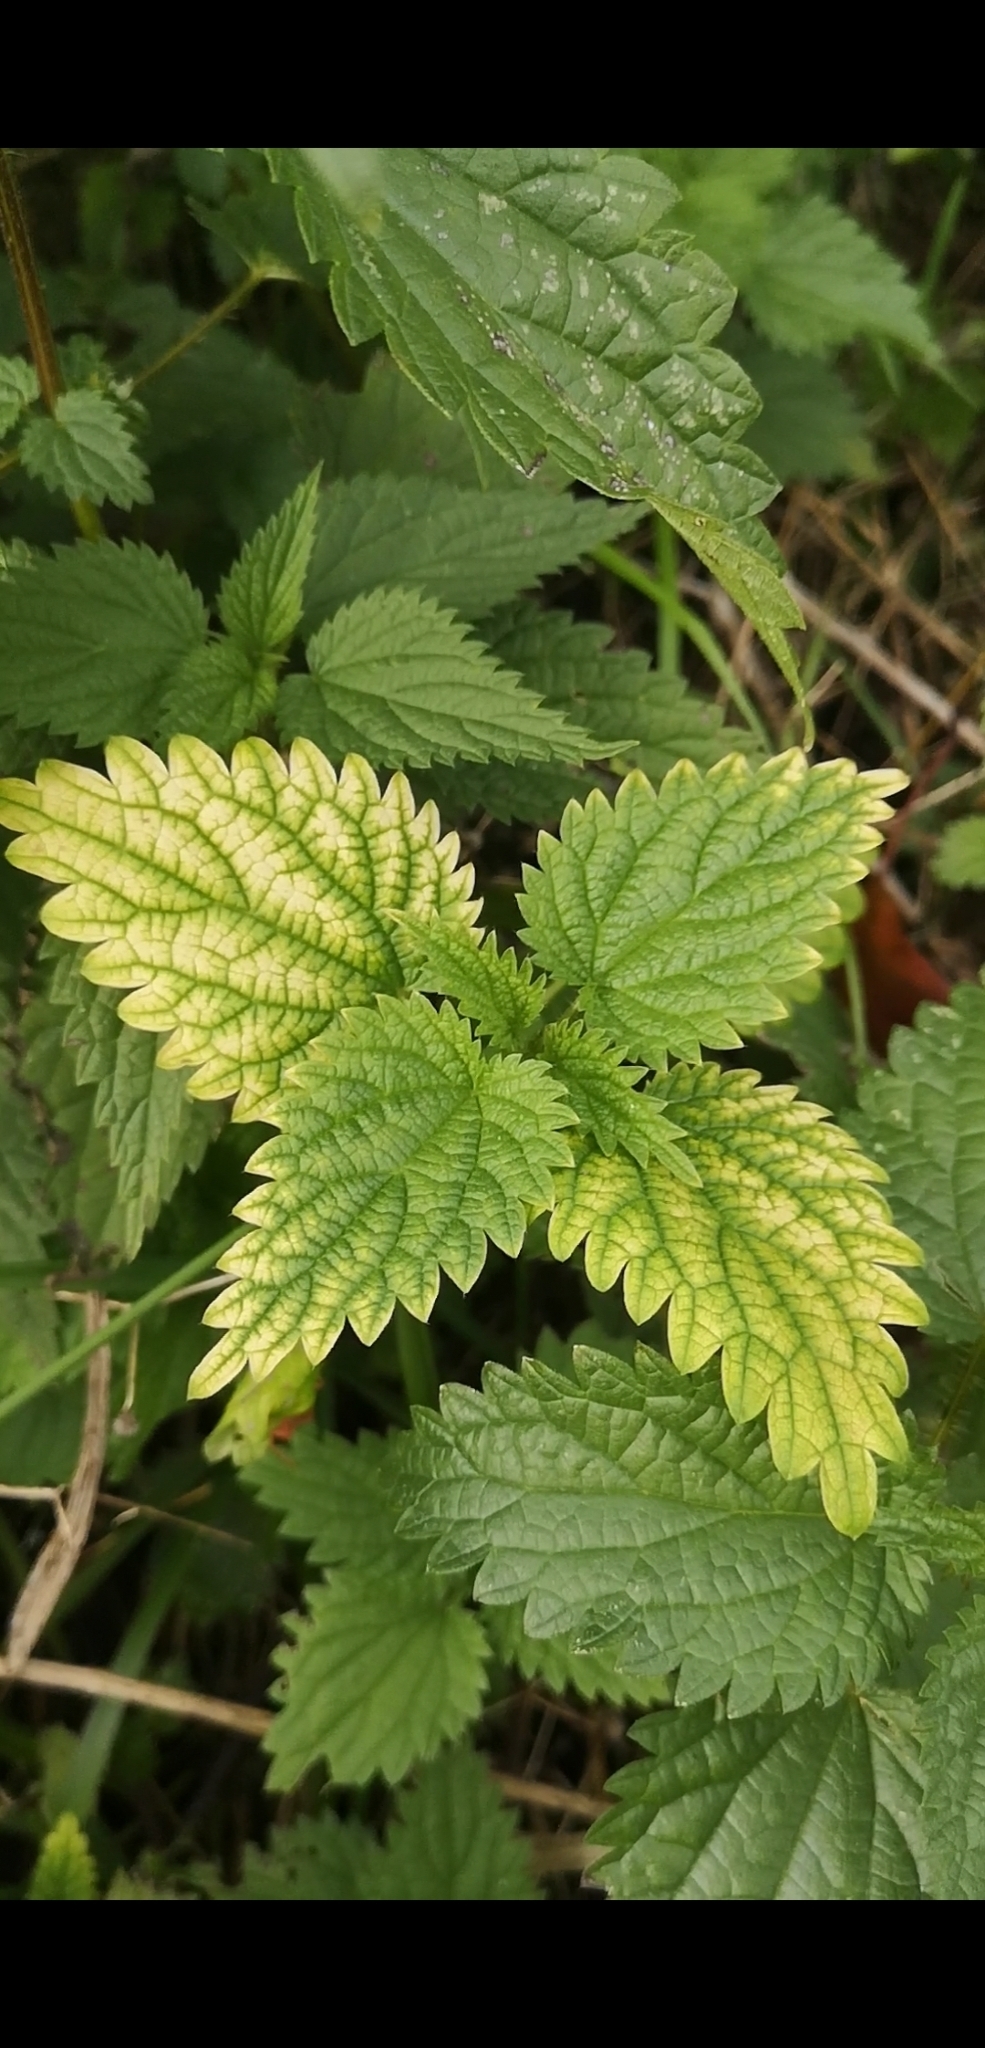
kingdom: Plantae
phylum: Tracheophyta
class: Magnoliopsida
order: Rosales
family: Urticaceae
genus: Urtica
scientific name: Urtica dioica
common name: Common nettle
